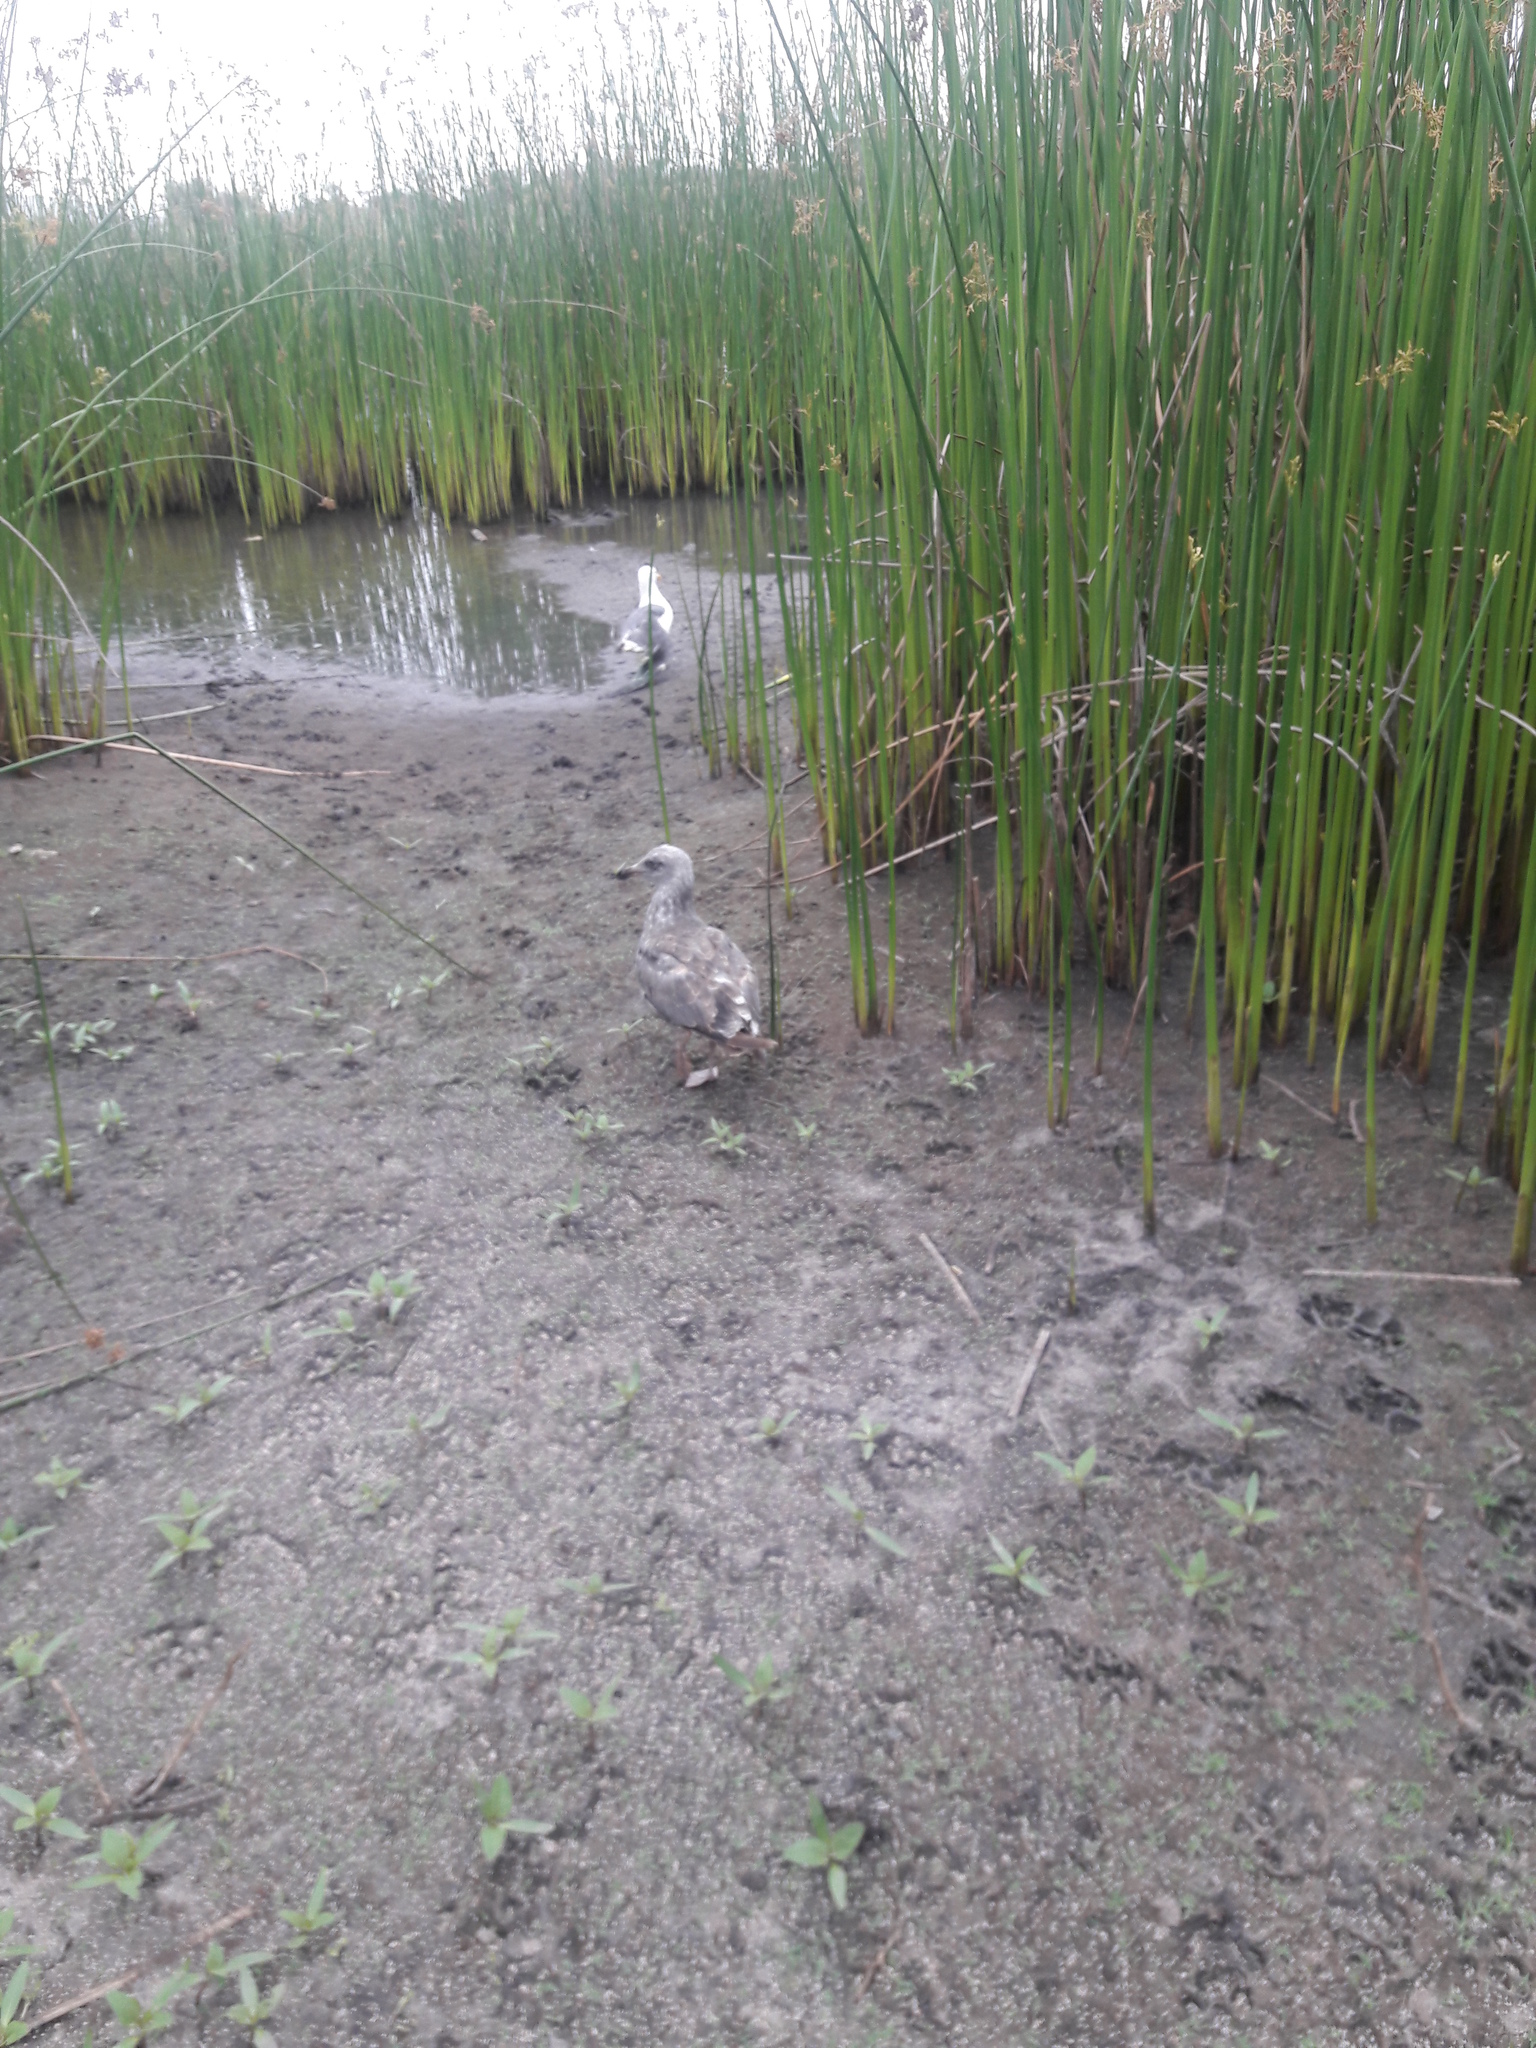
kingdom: Animalia
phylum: Chordata
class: Aves
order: Charadriiformes
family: Laridae
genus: Larus
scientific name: Larus occidentalis
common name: Western gull
